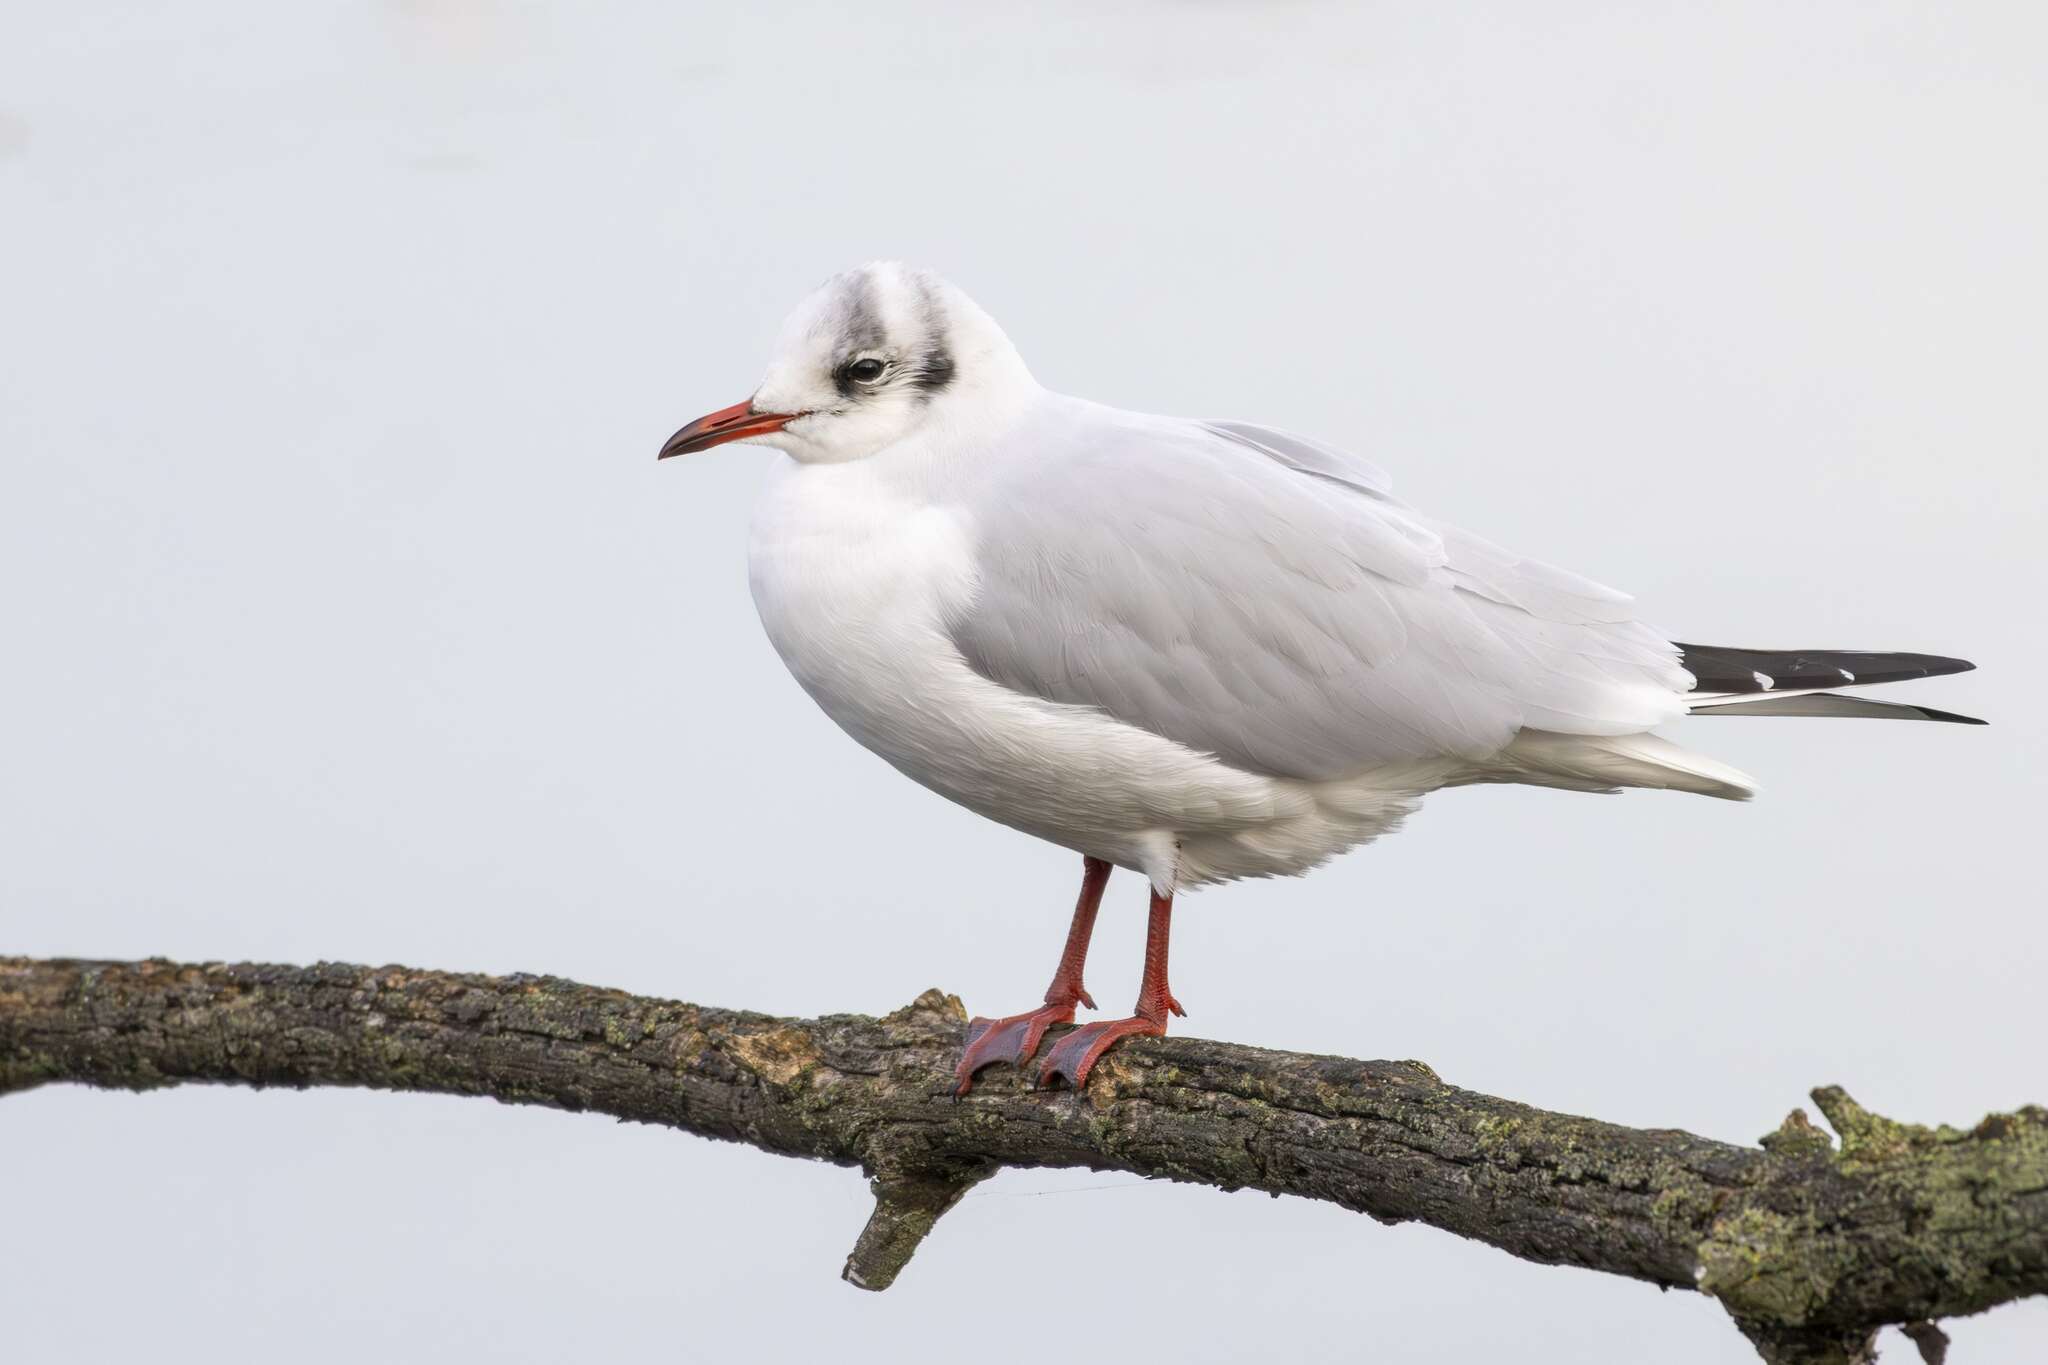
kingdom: Animalia
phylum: Chordata
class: Aves
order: Charadriiformes
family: Laridae
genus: Chroicocephalus
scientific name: Chroicocephalus ridibundus
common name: Black-headed gull
